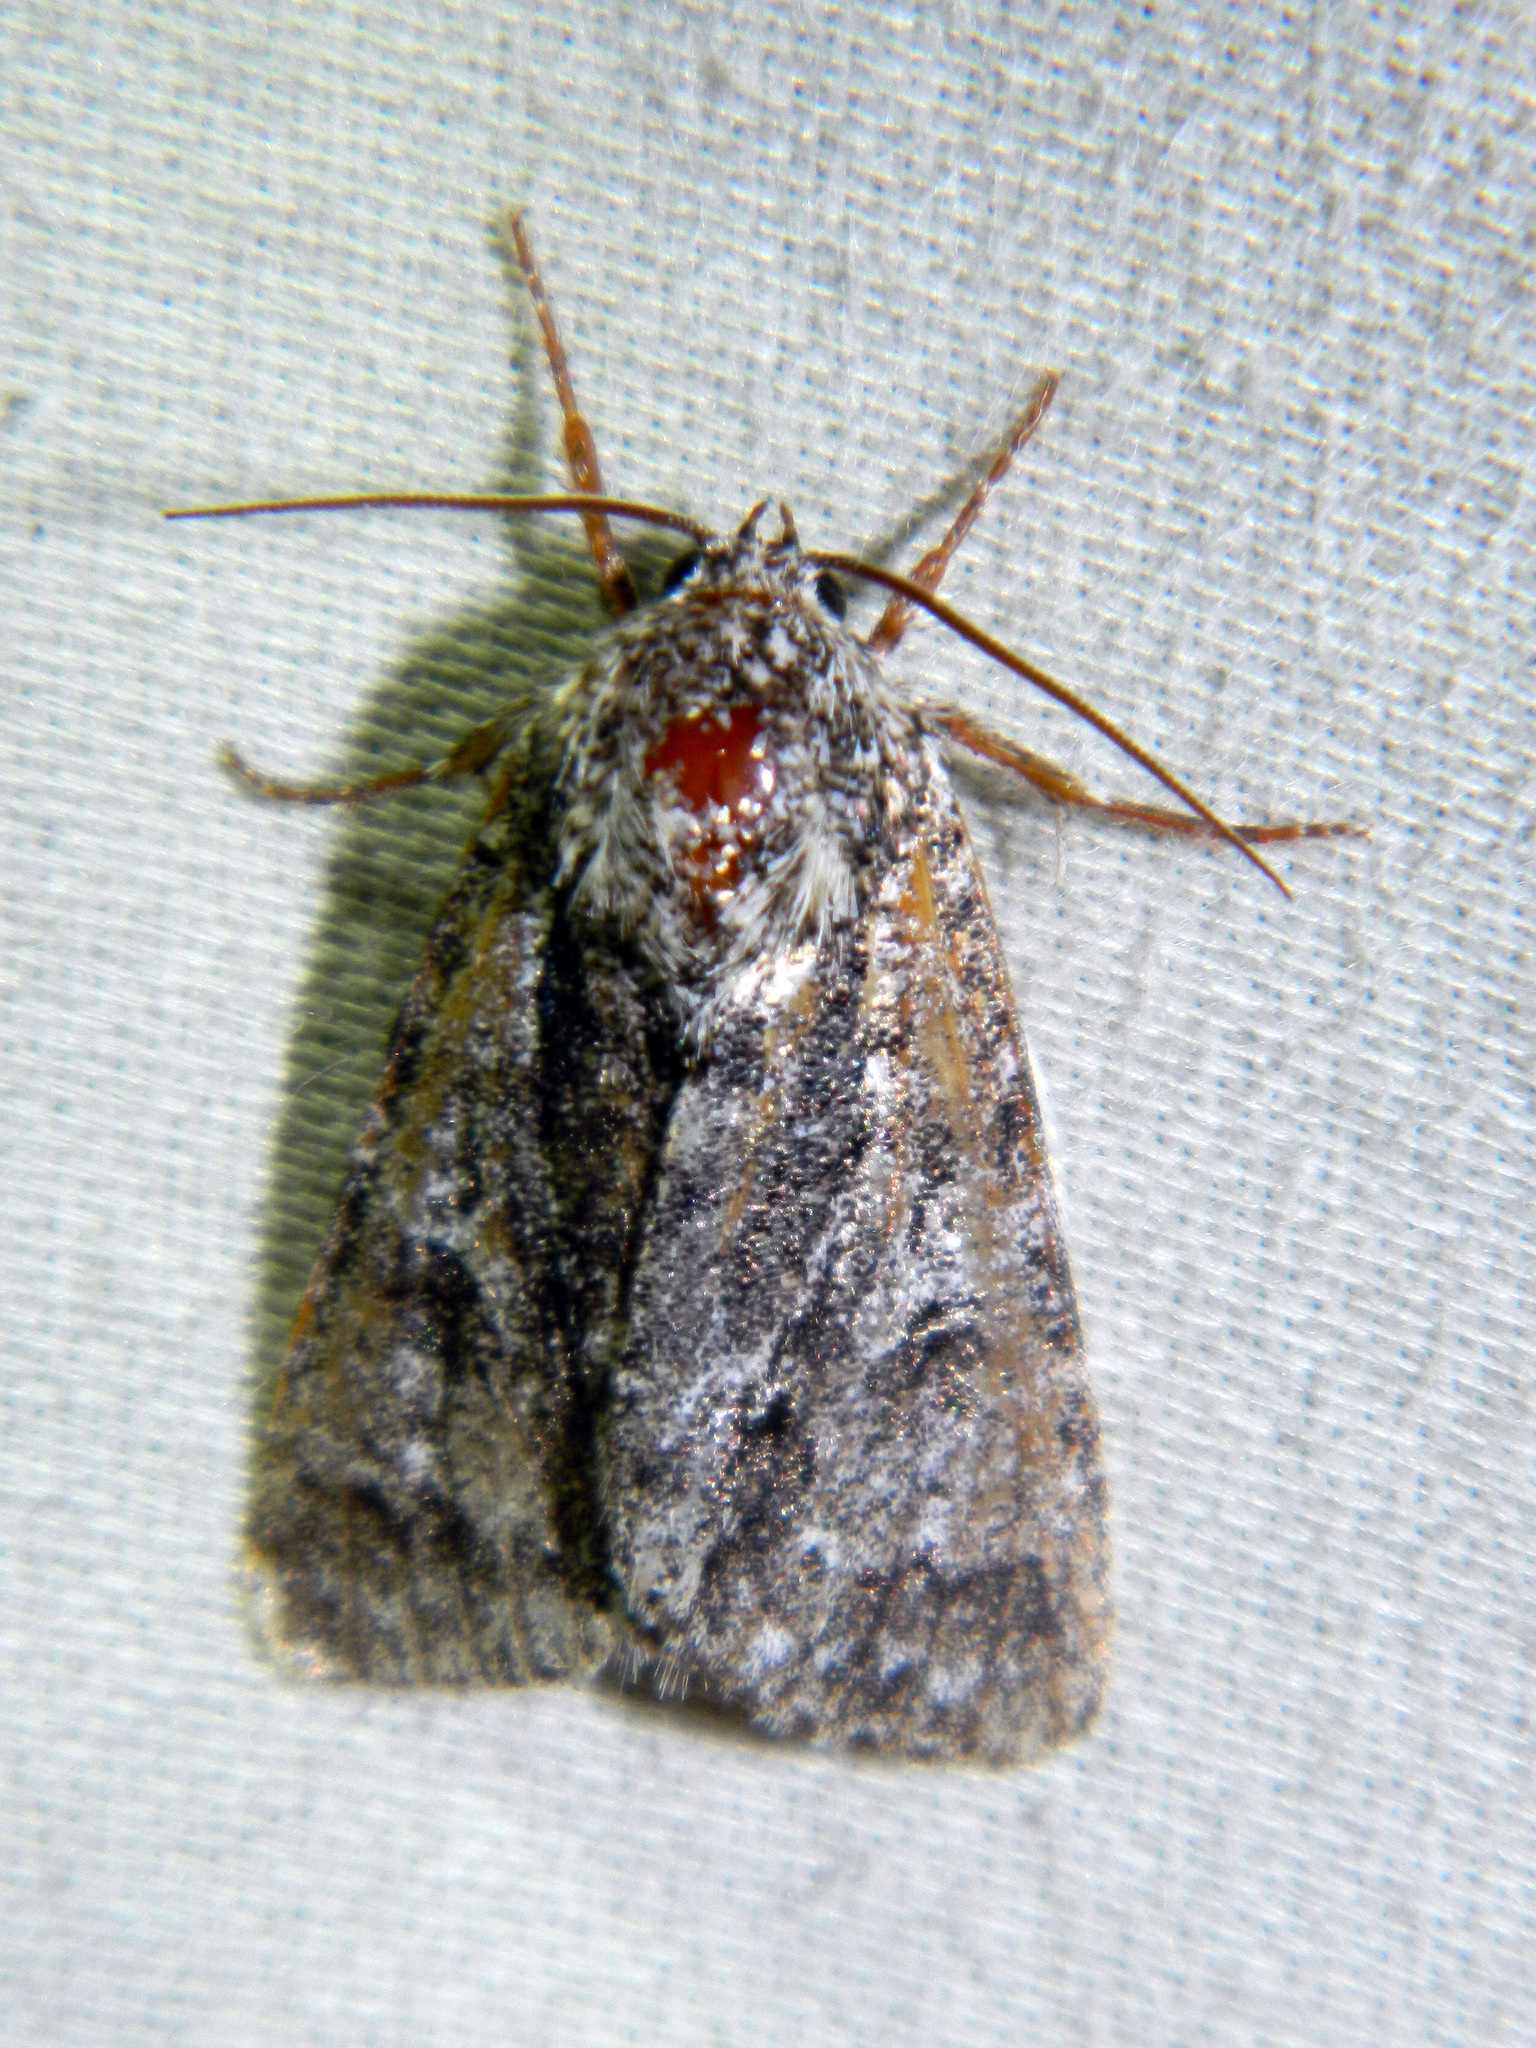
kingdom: Animalia
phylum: Arthropoda
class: Insecta
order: Lepidoptera
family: Noctuidae
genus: Acronicta
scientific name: Acronicta impressa
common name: Impressed dagger
